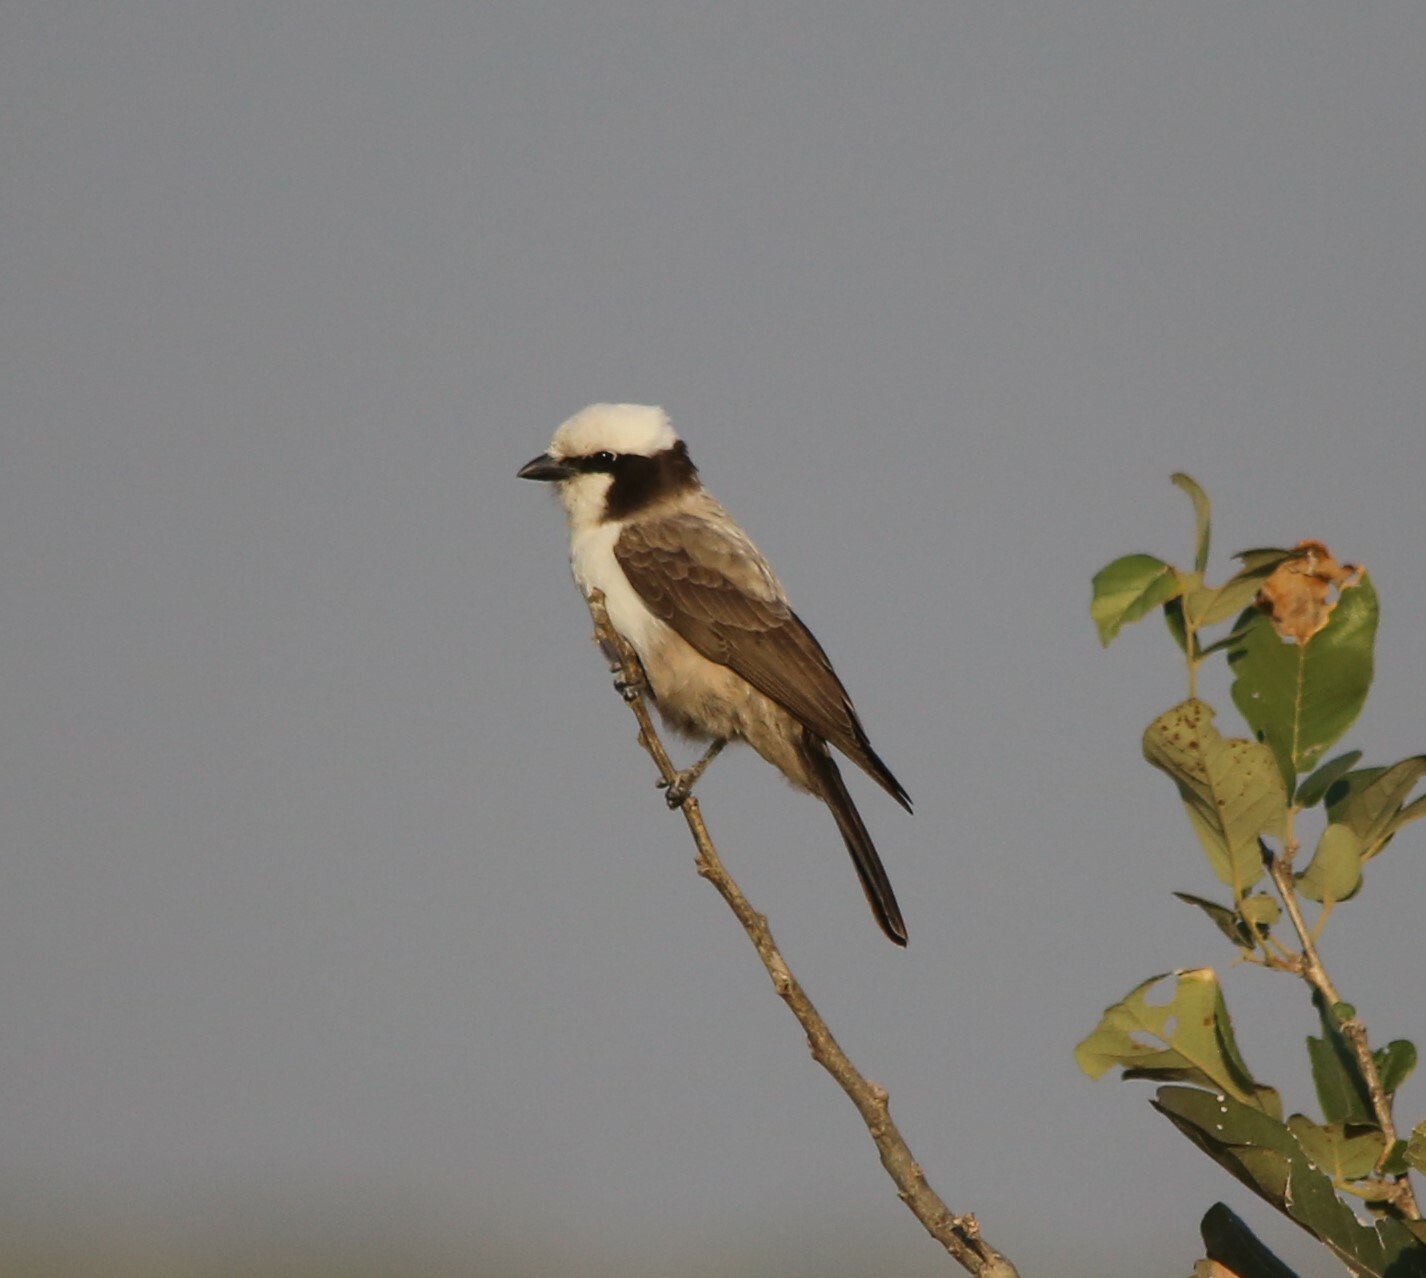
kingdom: Animalia
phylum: Chordata
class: Aves
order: Passeriformes
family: Laniidae
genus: Eurocephalus
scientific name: Eurocephalus anguitimens
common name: Southern white-crowned shrike
